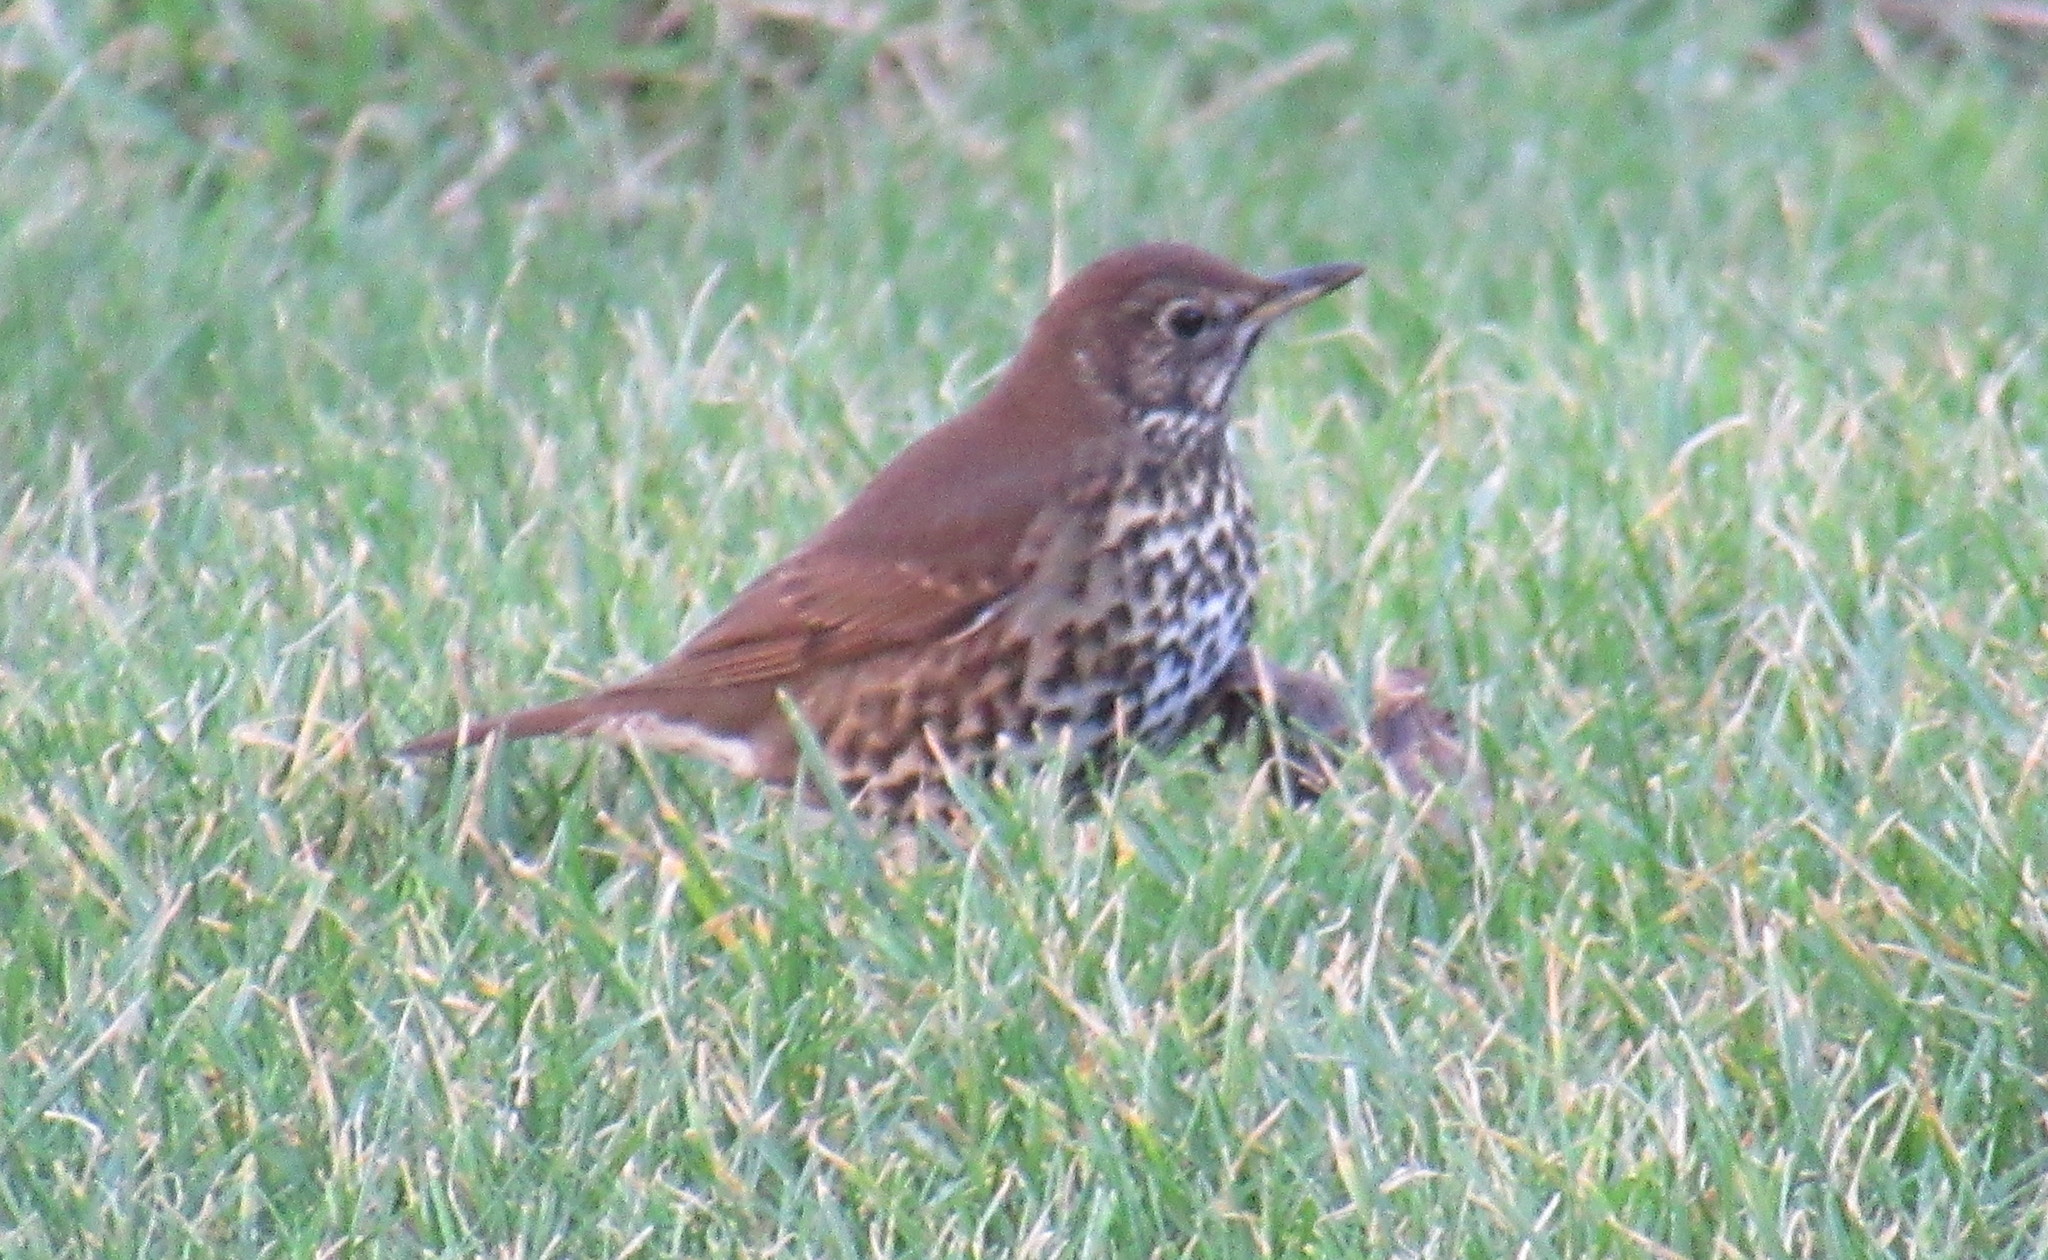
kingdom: Animalia
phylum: Chordata
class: Aves
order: Passeriformes
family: Turdidae
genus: Turdus
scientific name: Turdus philomelos
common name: Song thrush
